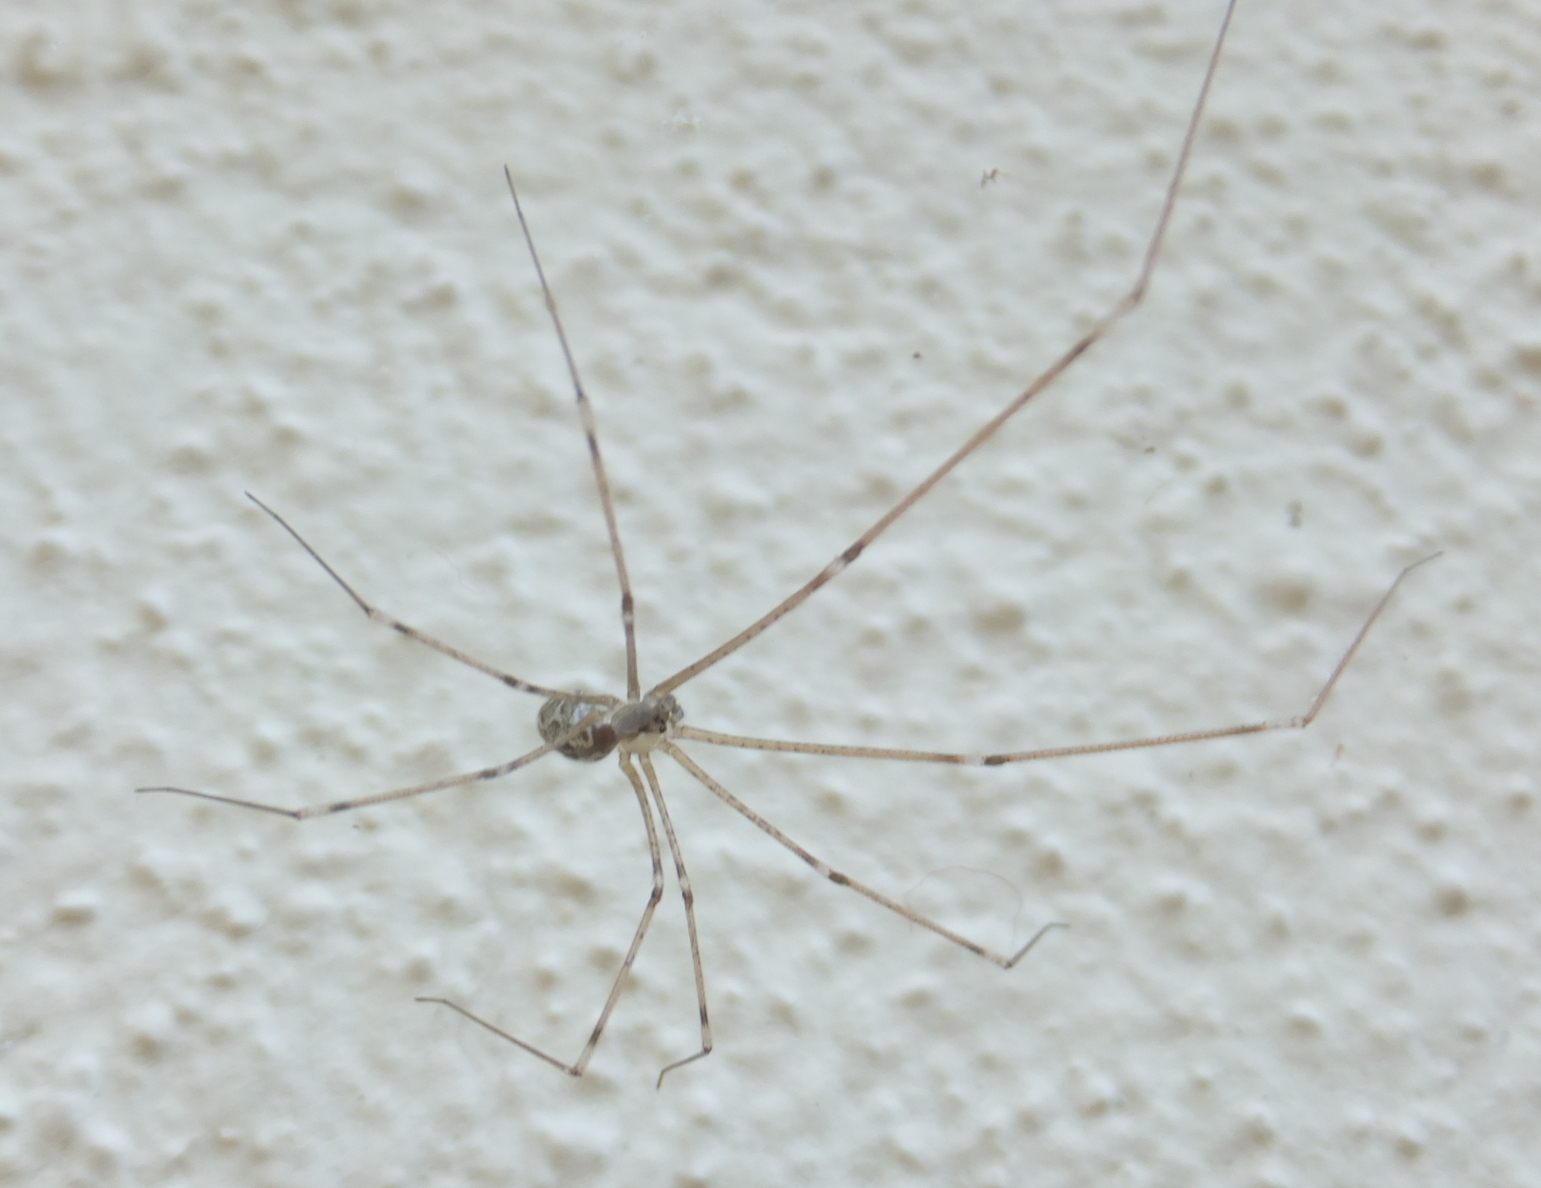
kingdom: Animalia
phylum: Arthropoda
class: Arachnida
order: Araneae
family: Pholcidae
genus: Holocnemus
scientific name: Holocnemus pluchei
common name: Marbled cellar spider
